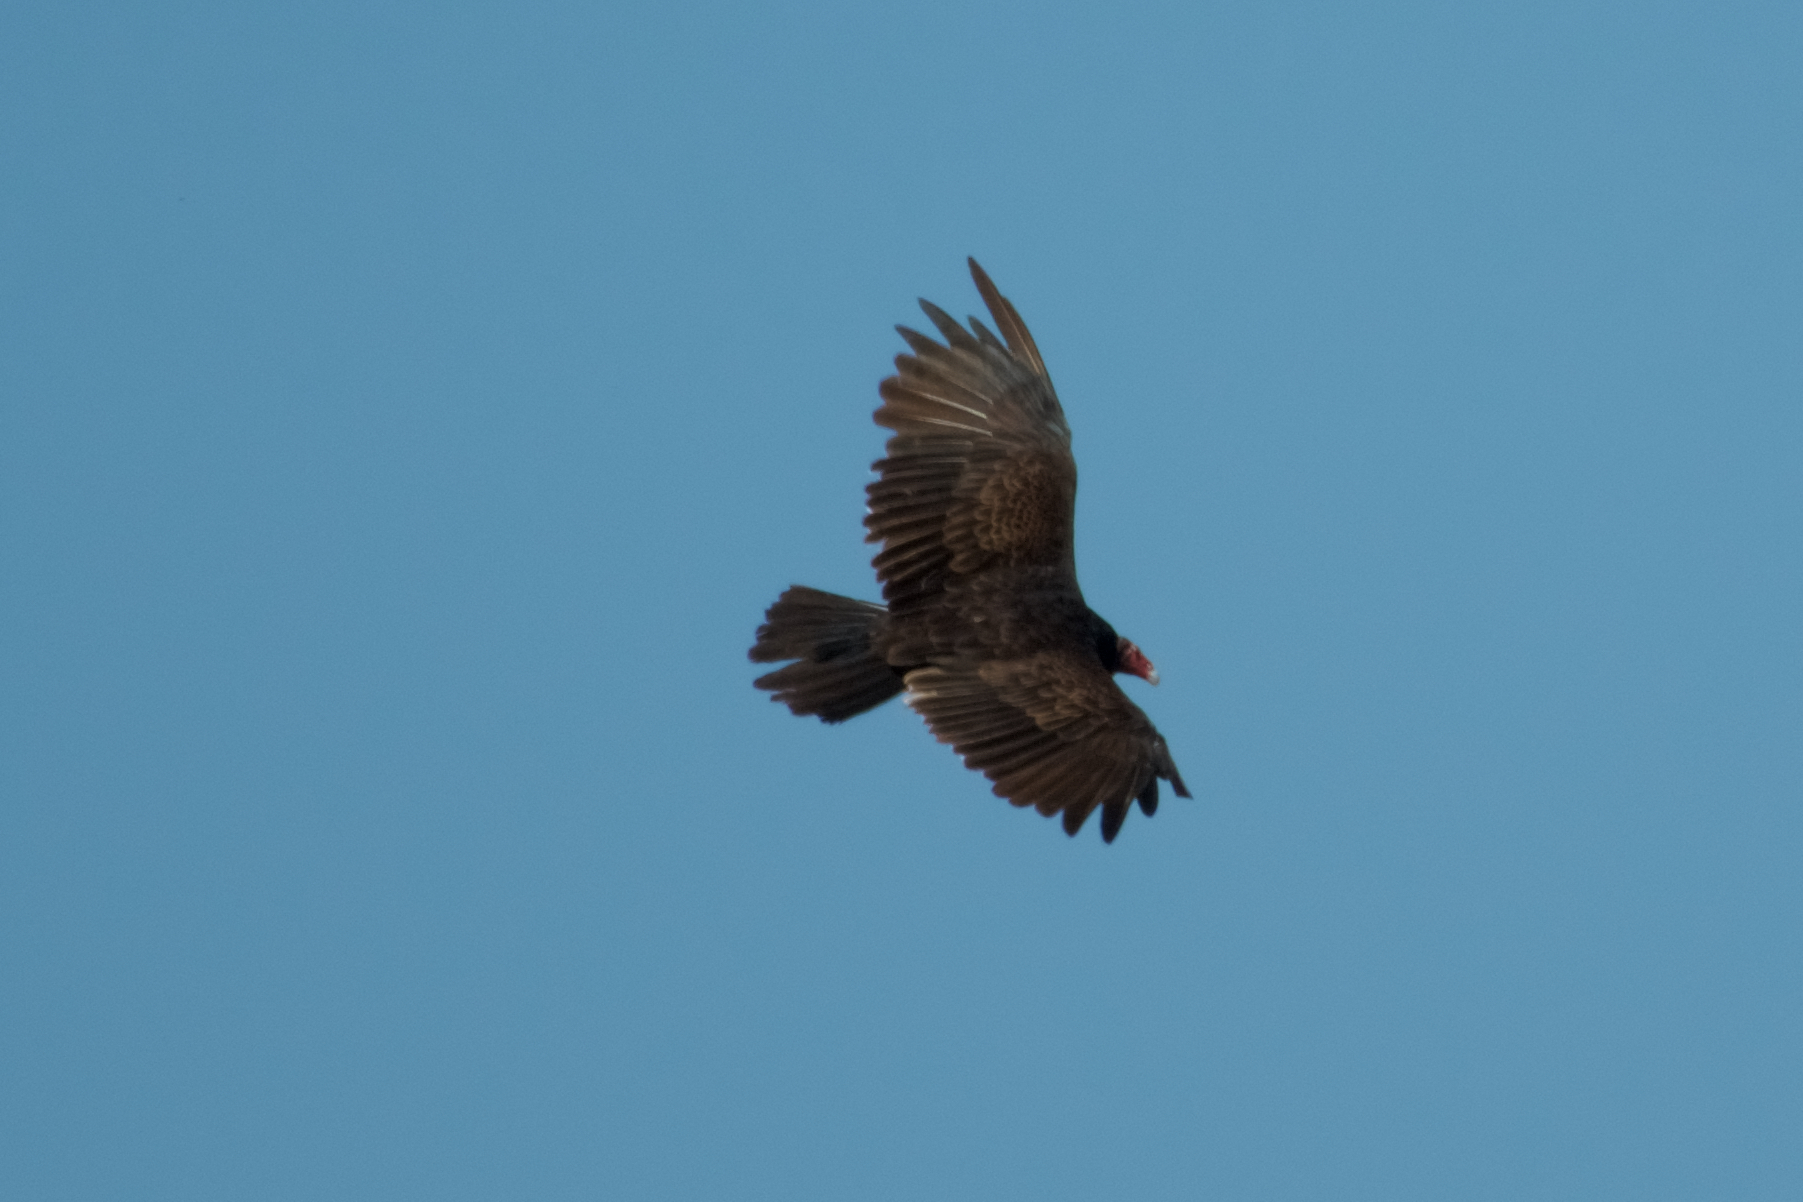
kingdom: Animalia
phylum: Chordata
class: Aves
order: Accipitriformes
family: Cathartidae
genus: Cathartes
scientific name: Cathartes aura
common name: Turkey vulture
